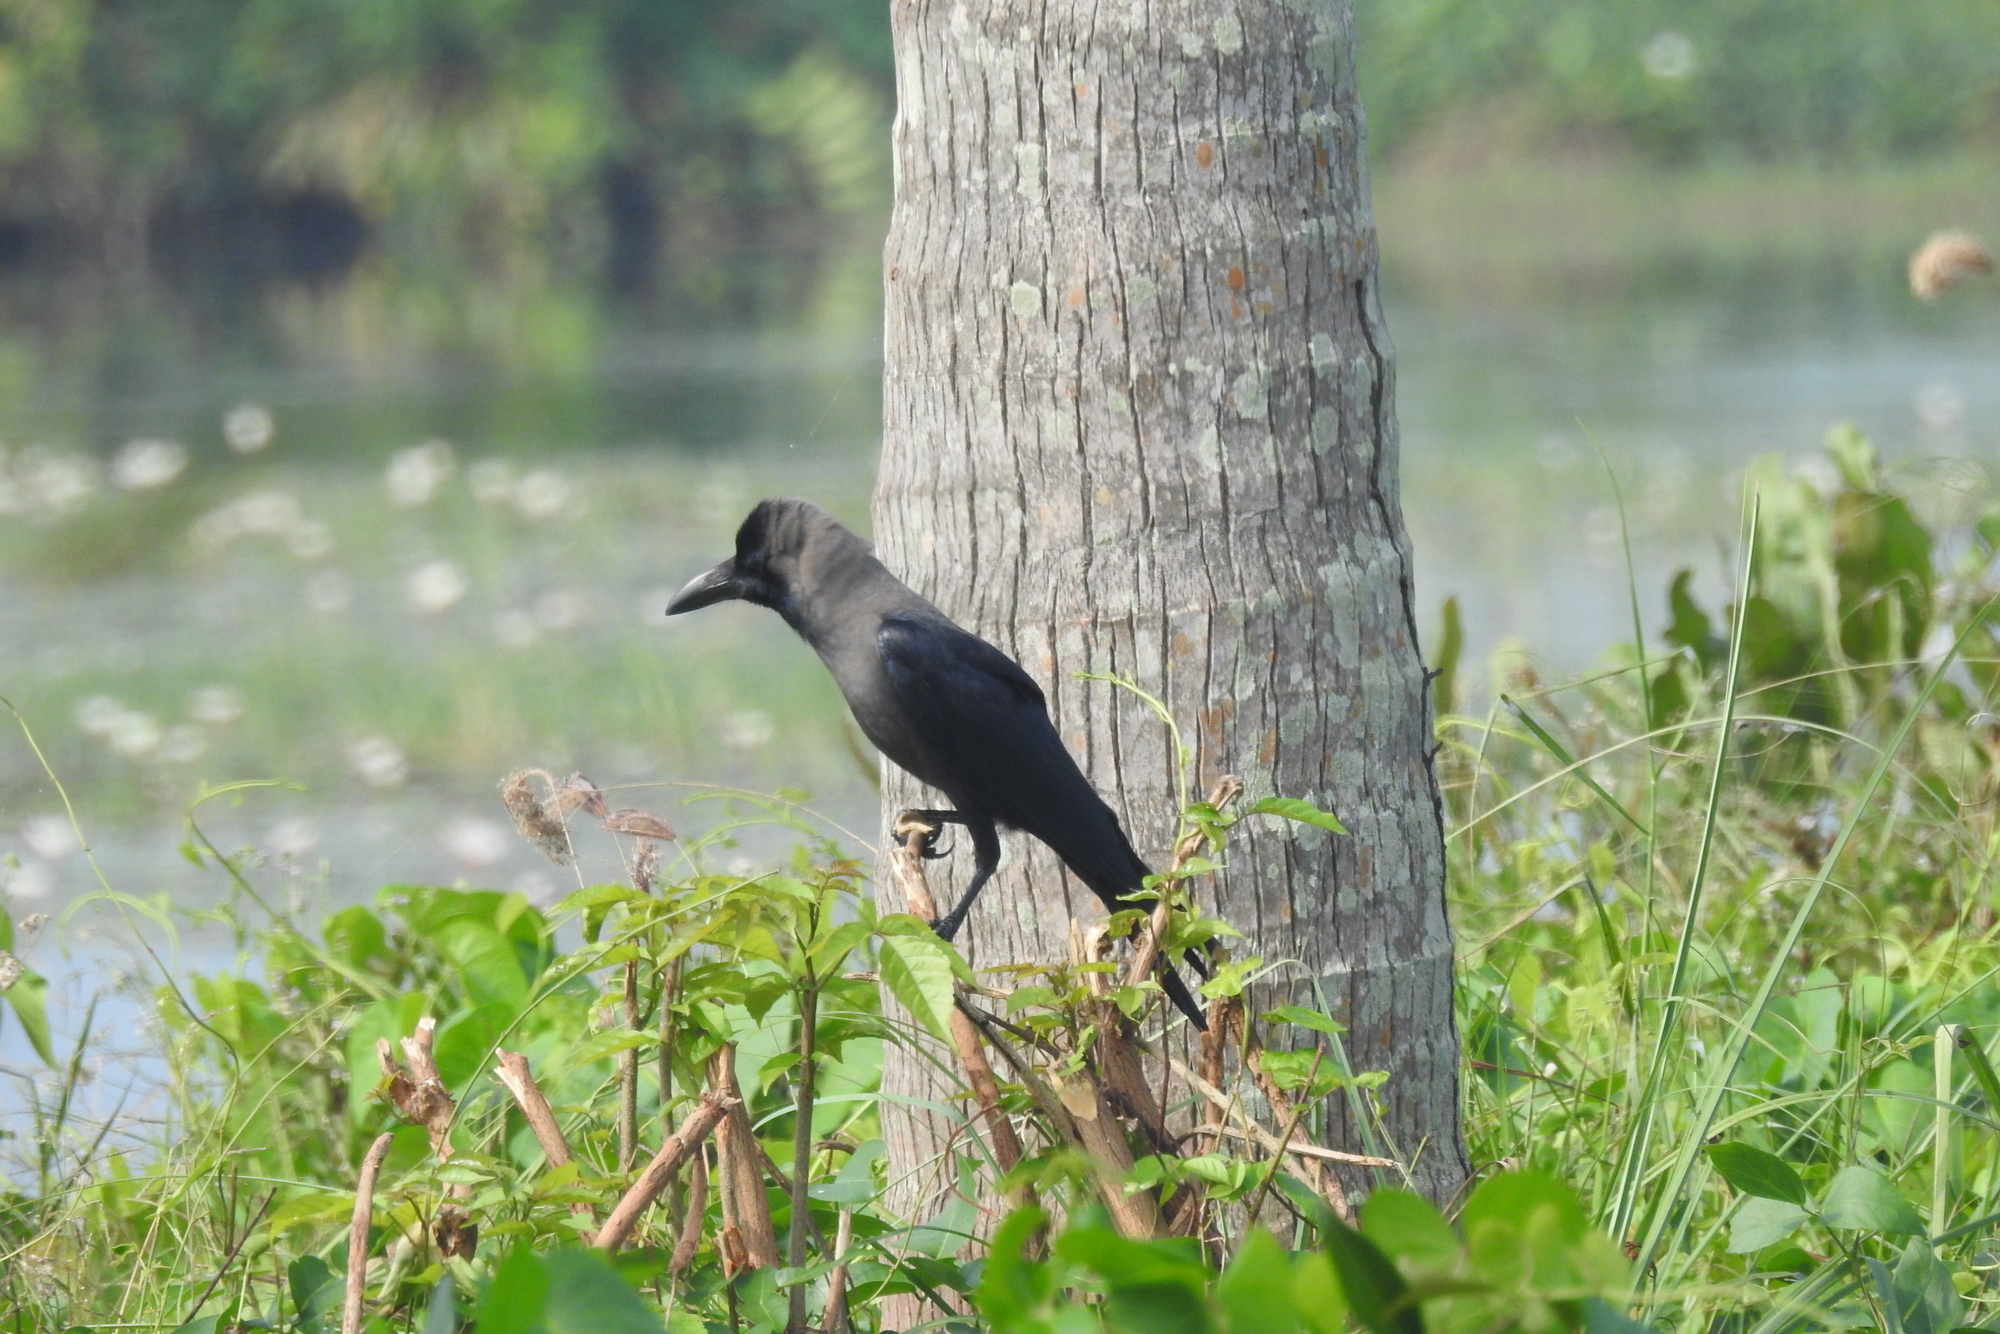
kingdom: Animalia
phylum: Chordata
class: Aves
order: Passeriformes
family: Corvidae
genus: Corvus
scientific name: Corvus splendens
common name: House crow
